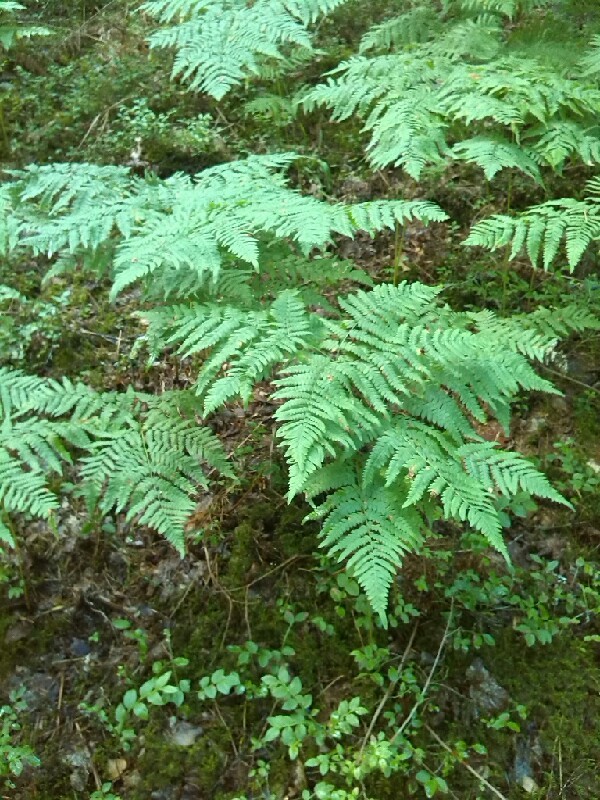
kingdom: Plantae
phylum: Tracheophyta
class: Polypodiopsida
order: Polypodiales
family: Dennstaedtiaceae
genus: Pteridium
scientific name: Pteridium aquilinum
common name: Bracken
